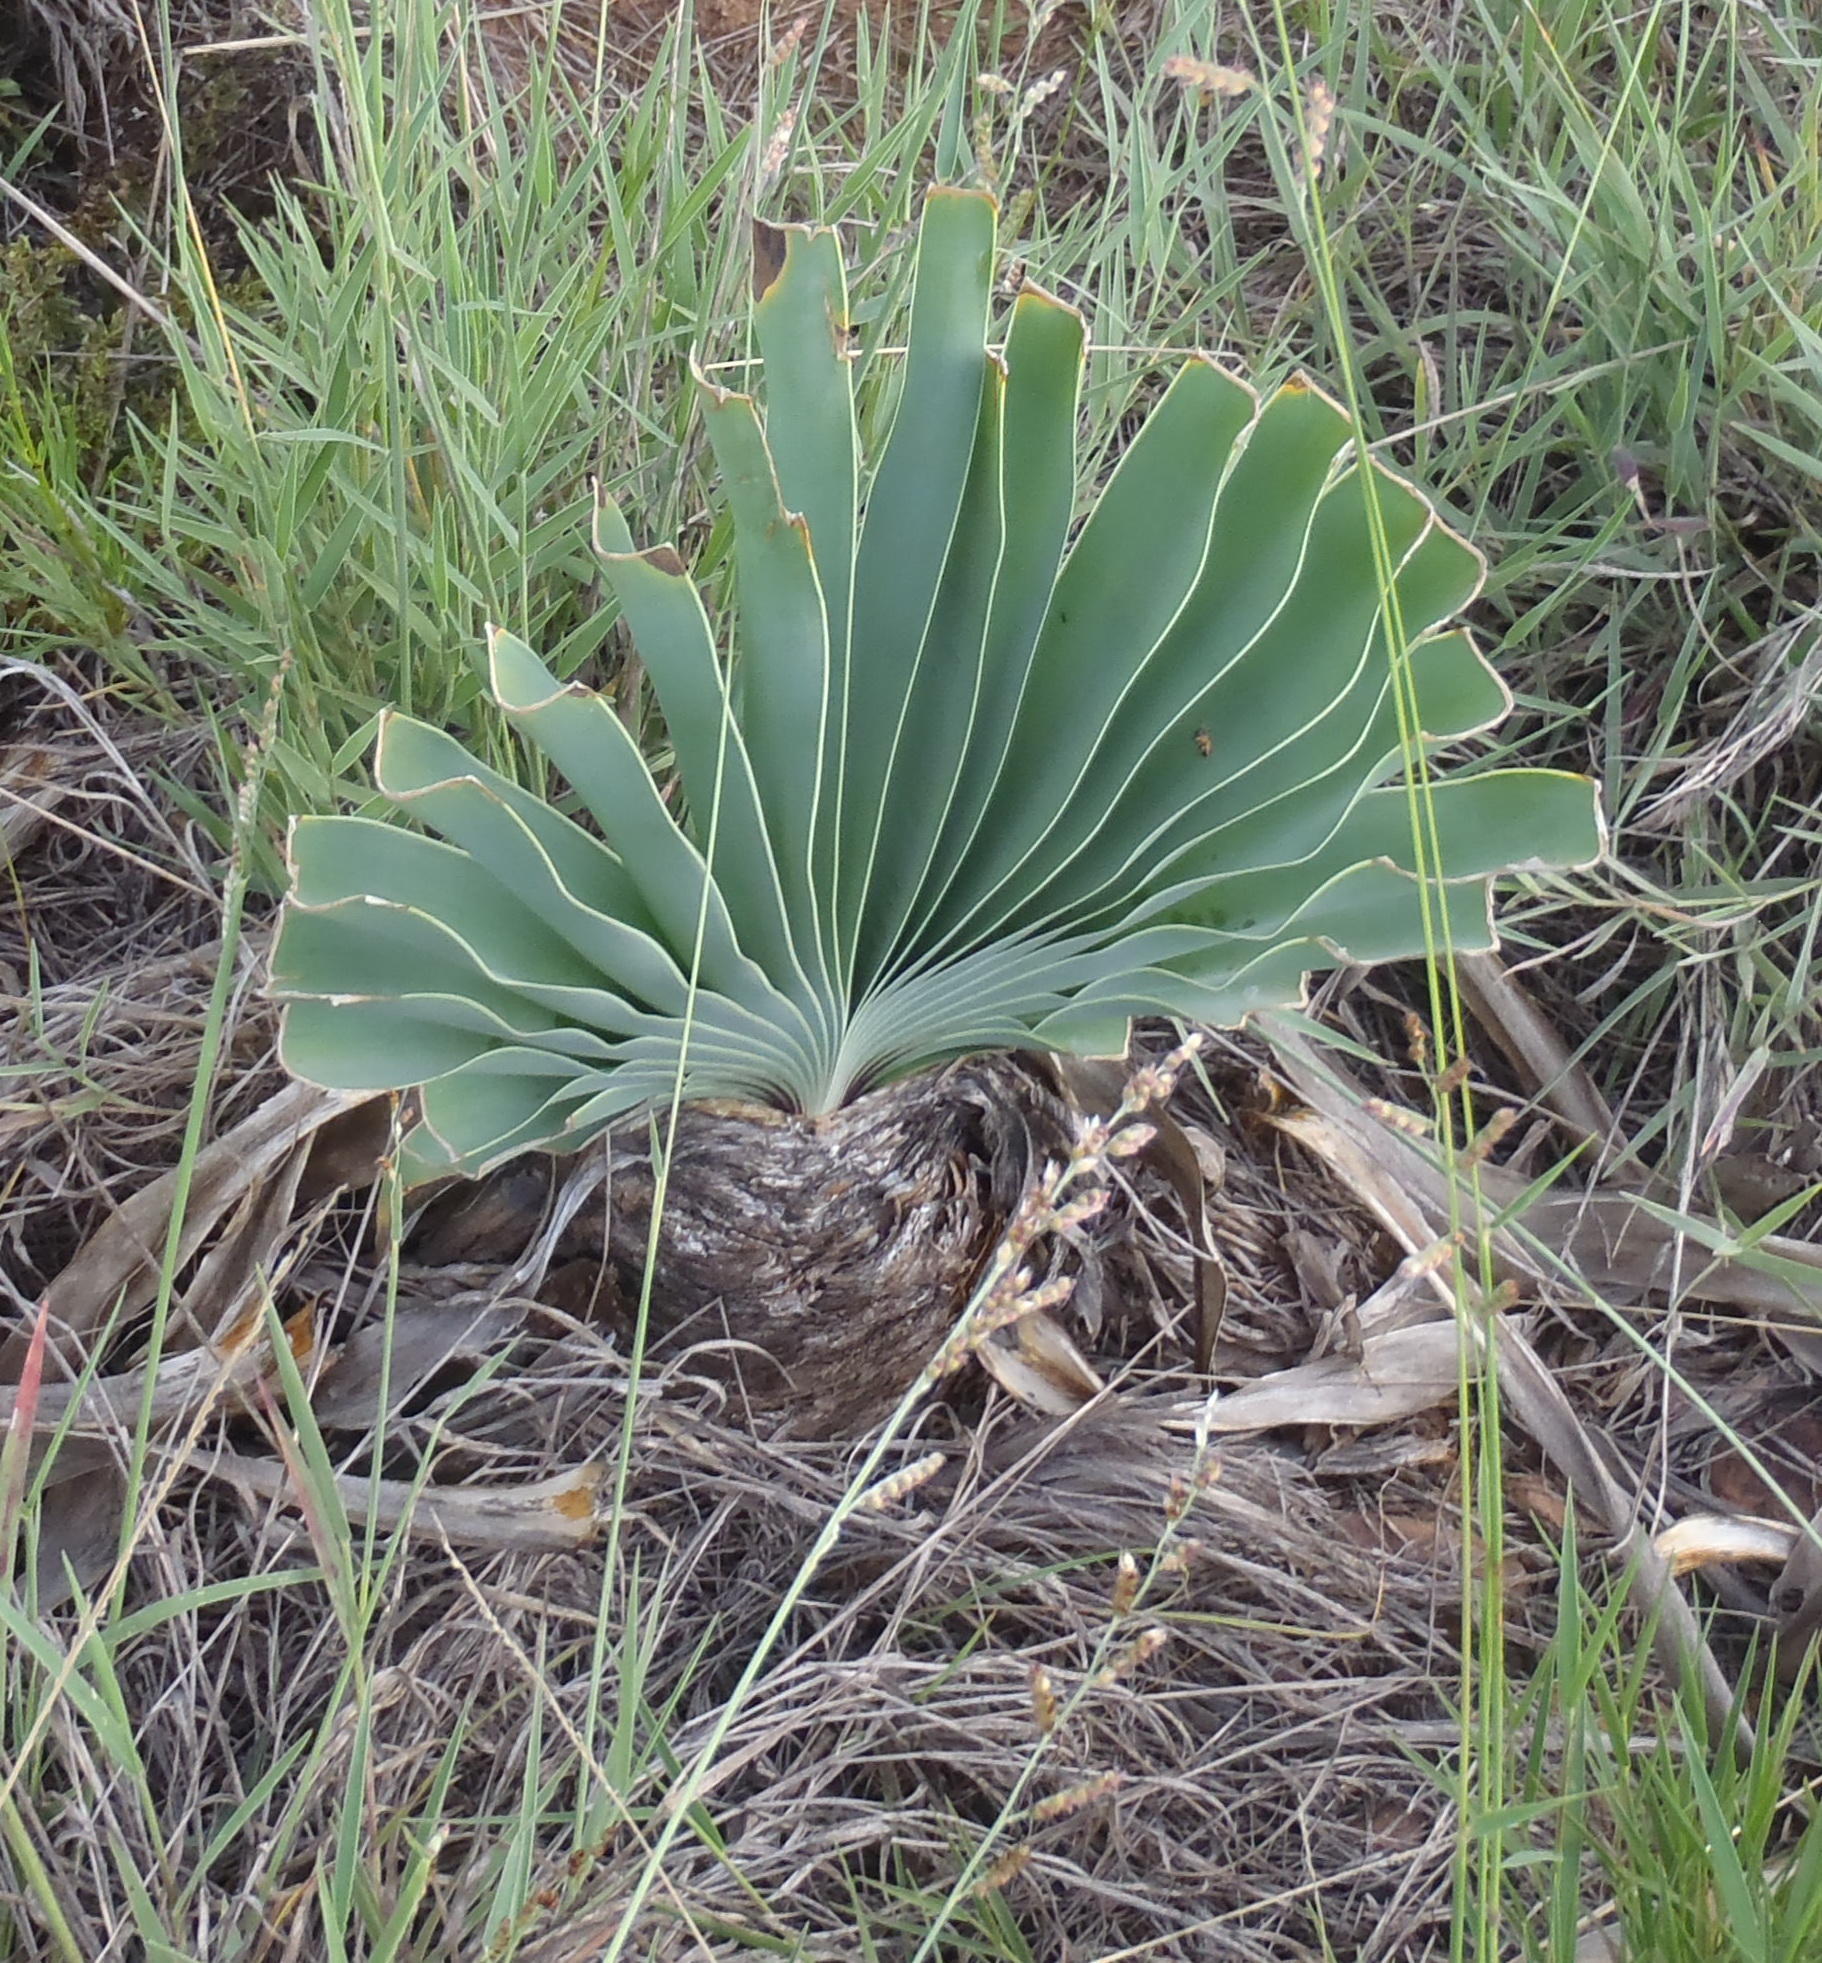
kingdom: Plantae
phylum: Tracheophyta
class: Liliopsida
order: Asparagales
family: Amaryllidaceae
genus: Boophone
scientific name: Boophone disticha
